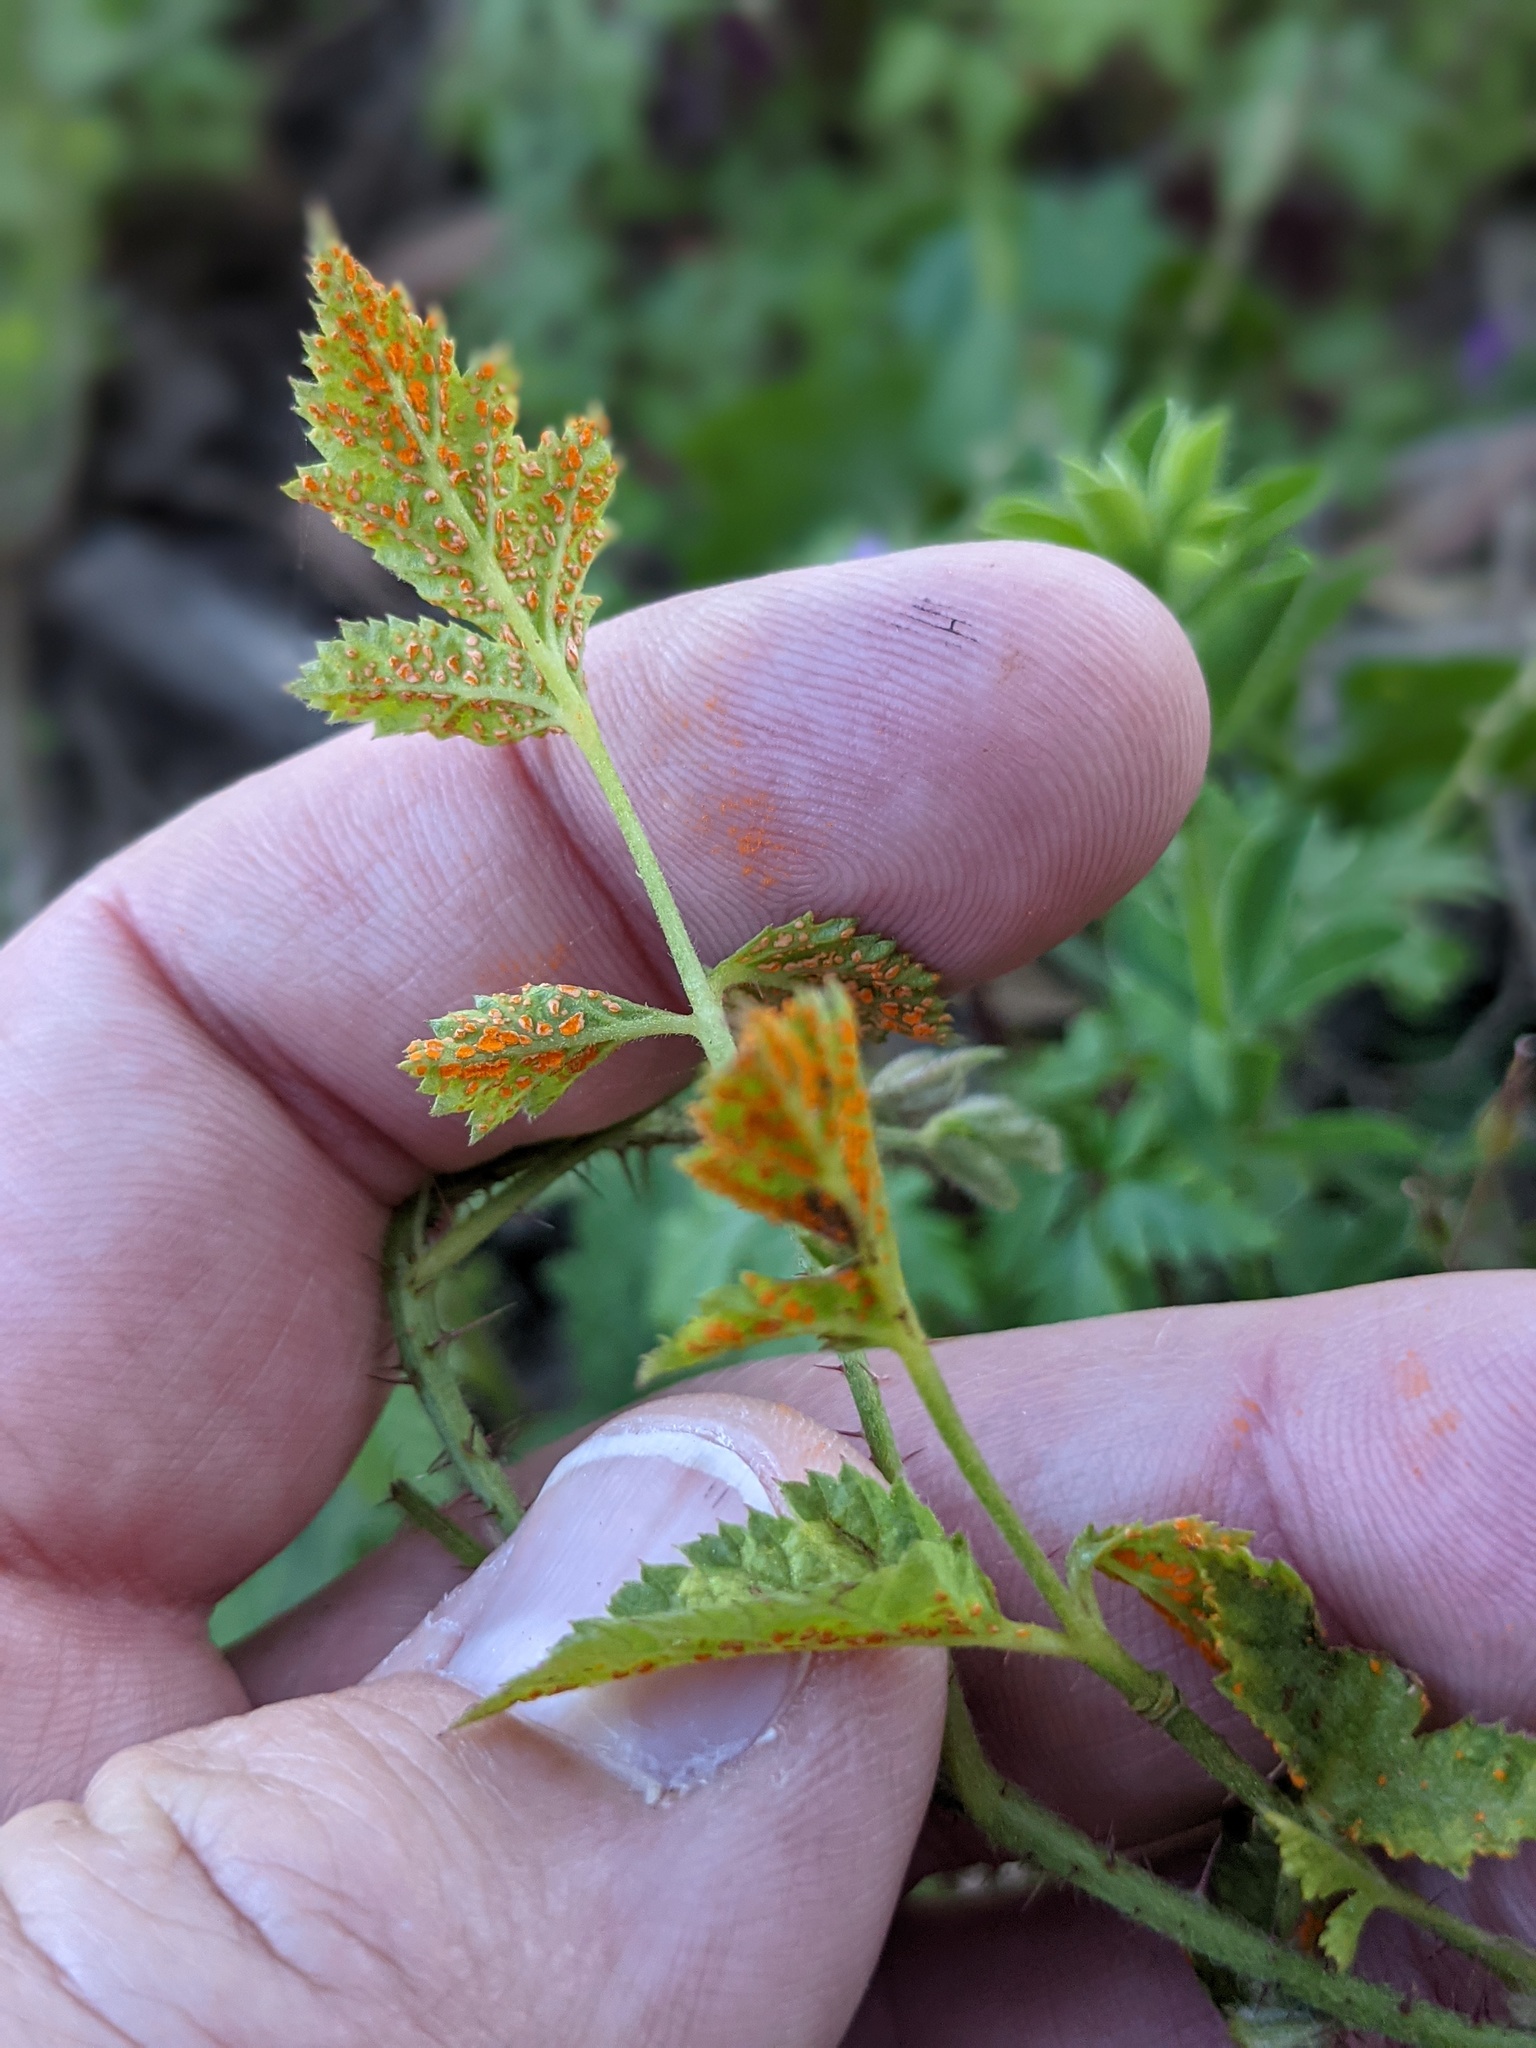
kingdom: Fungi
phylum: Basidiomycota
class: Pucciniomycetes
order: Pucciniales
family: Phragmidiaceae
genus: Arthuriomyces
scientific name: Arthuriomyces peckianus
